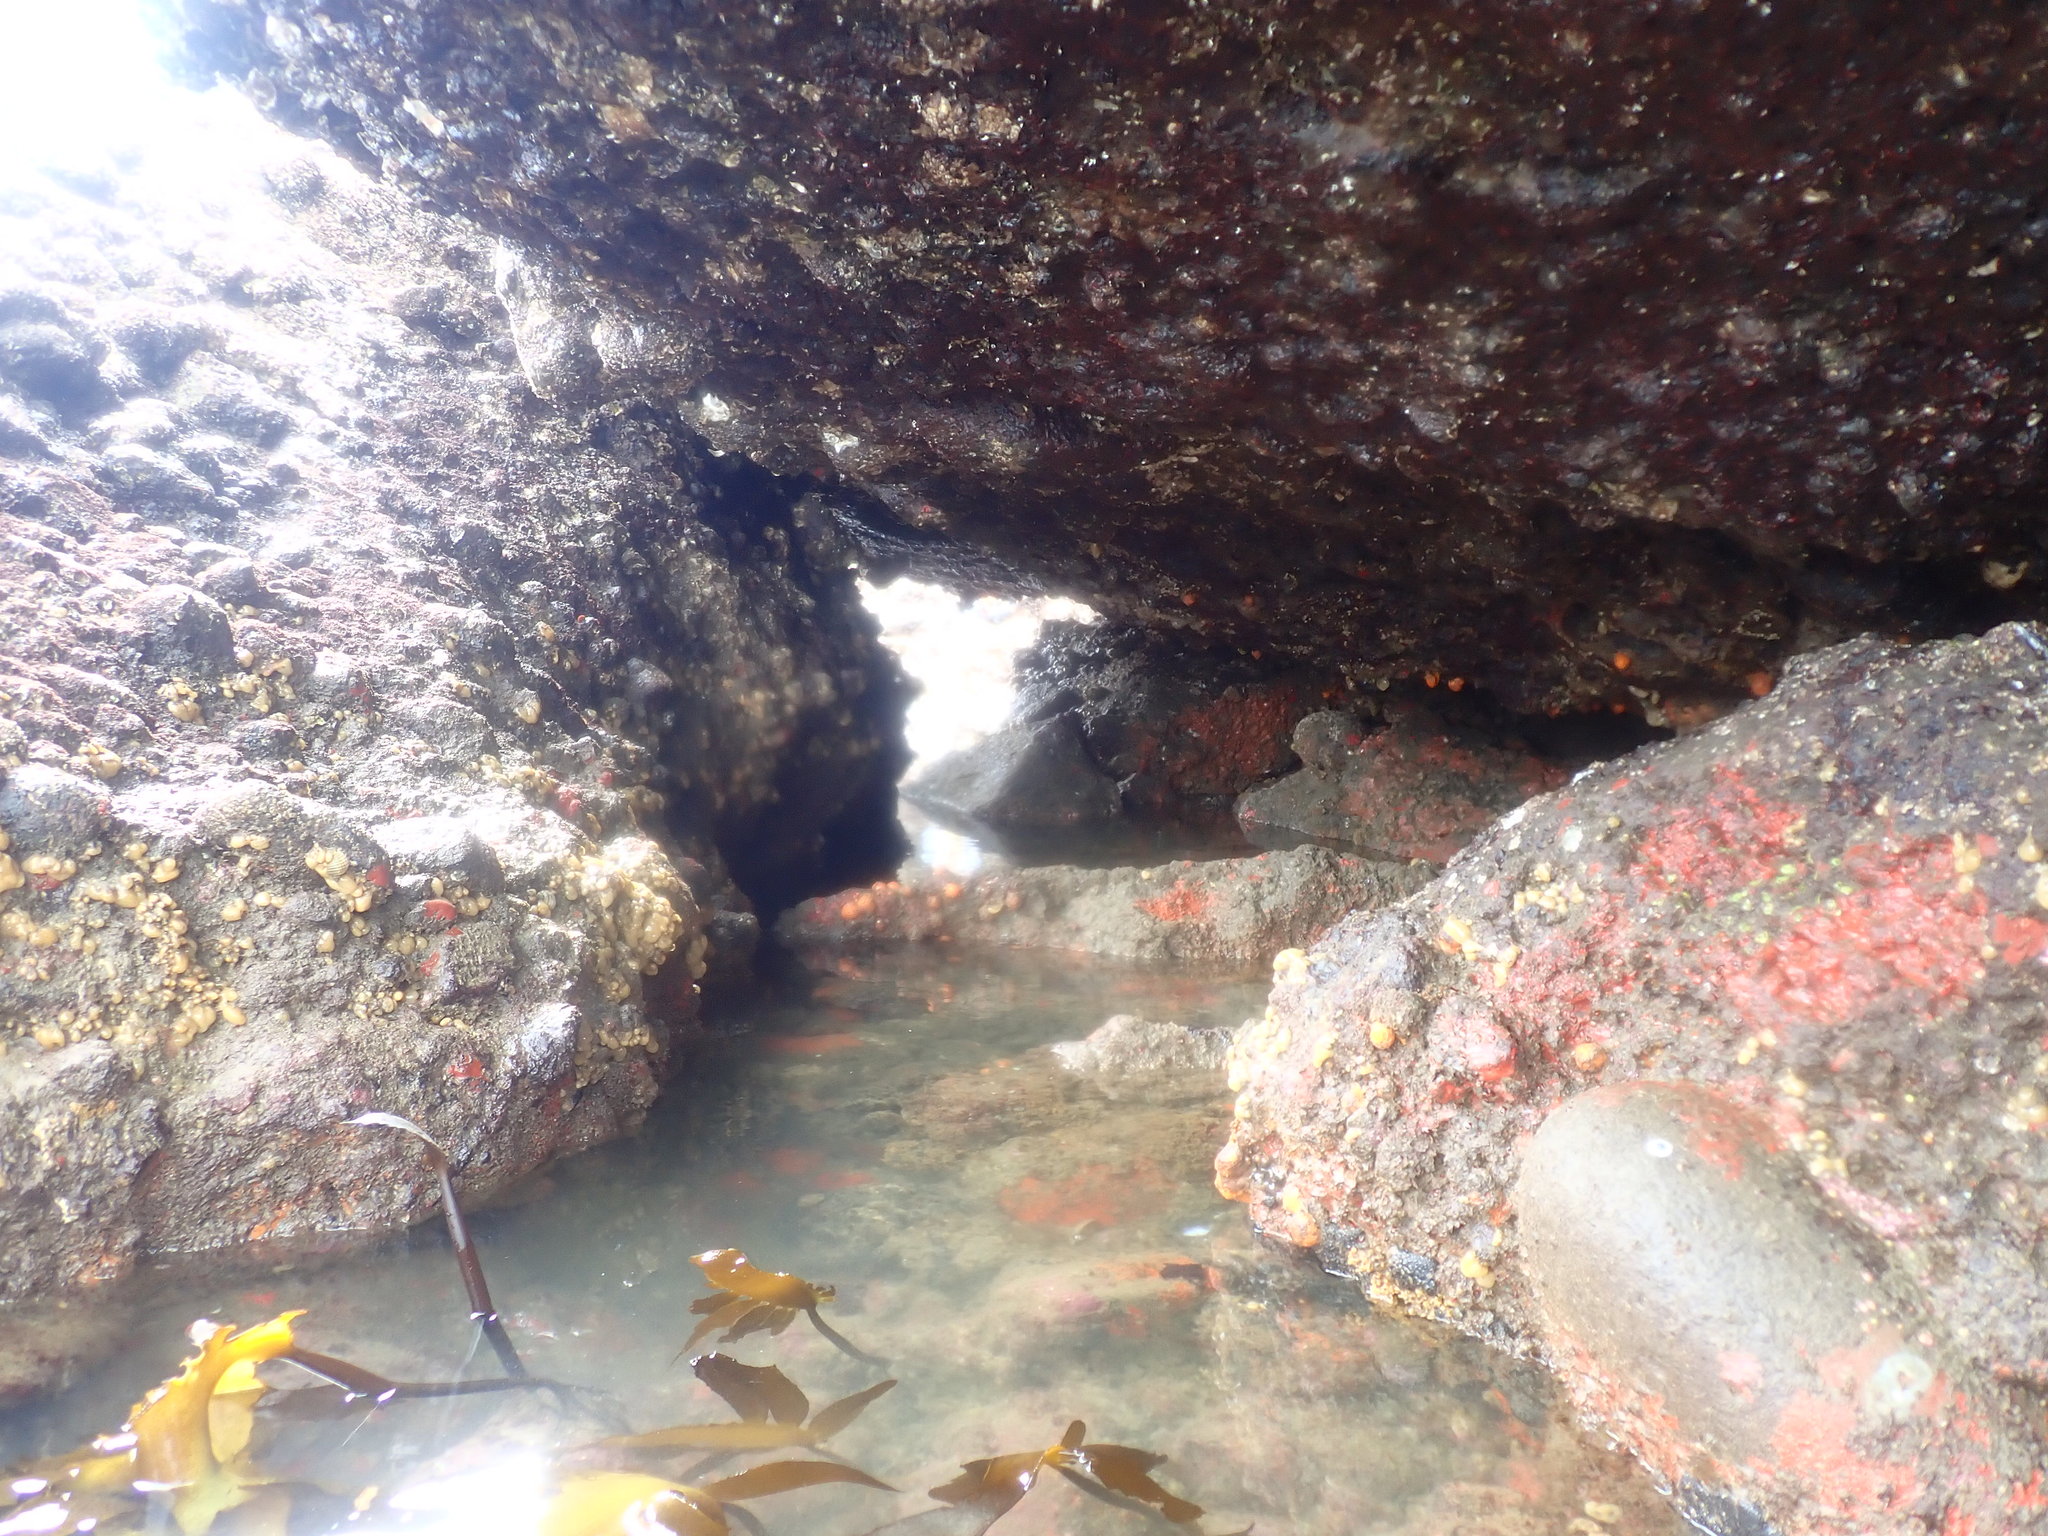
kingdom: Animalia
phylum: Mollusca
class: Gastropoda
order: Littorinimorpha
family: Ranellidae
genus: Ranella
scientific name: Ranella australasia
